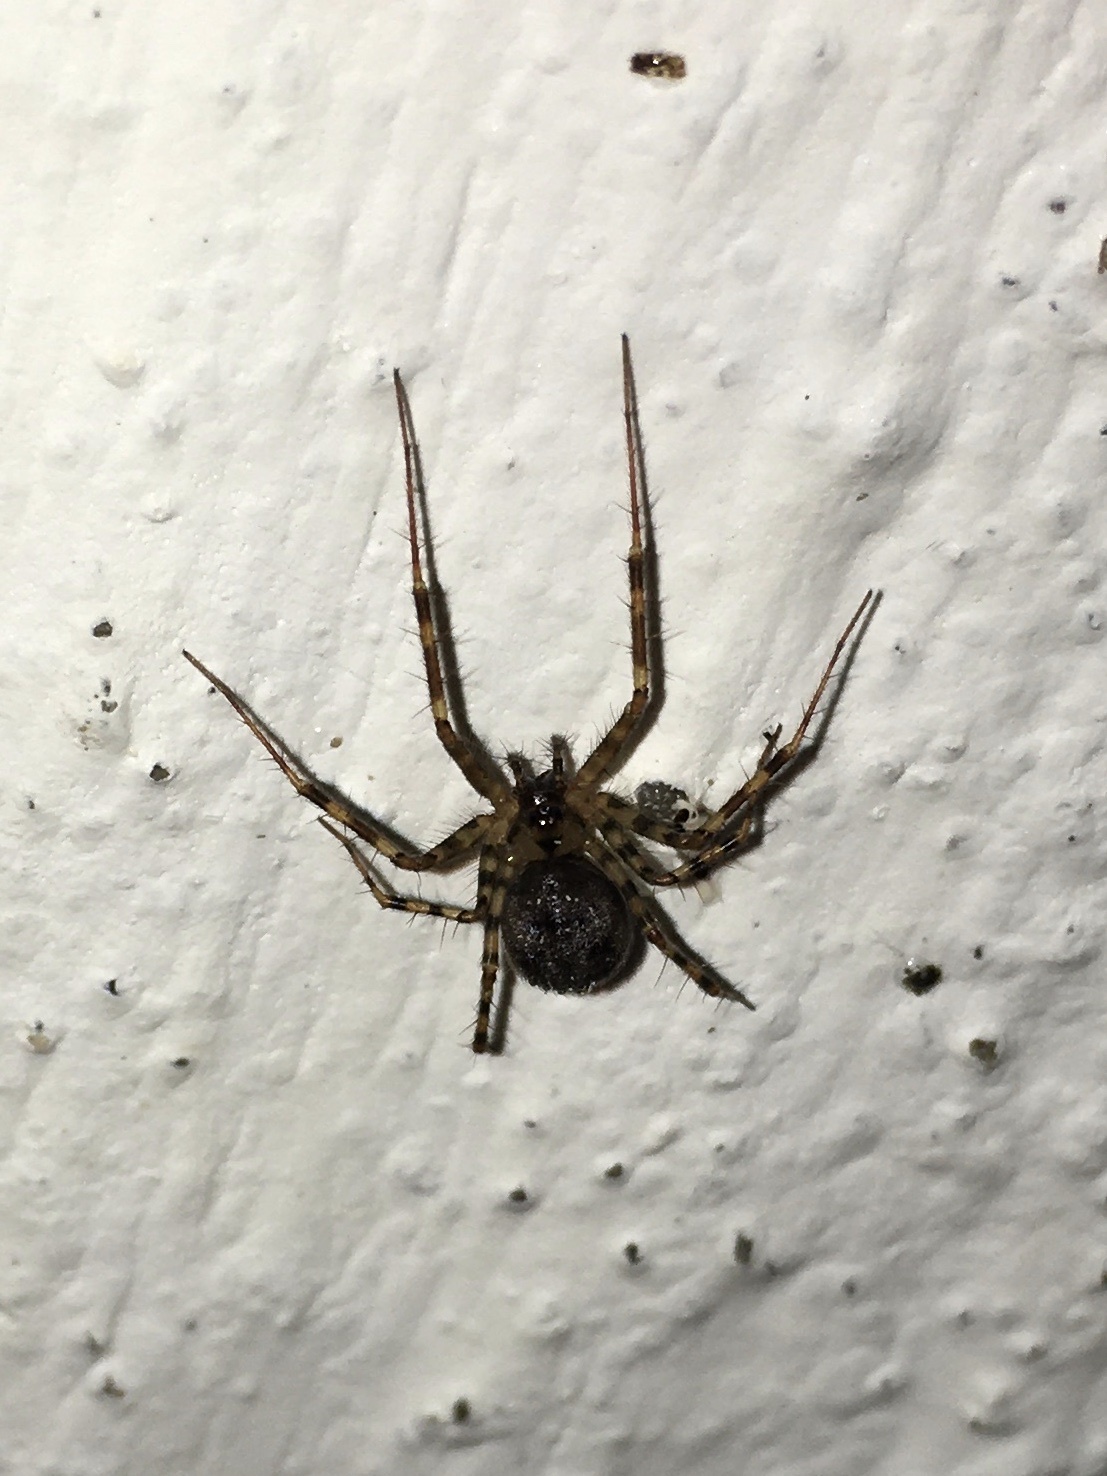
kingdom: Animalia
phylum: Arthropoda
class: Arachnida
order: Araneae
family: Linyphiidae
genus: Labulla
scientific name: Labulla thoracica
